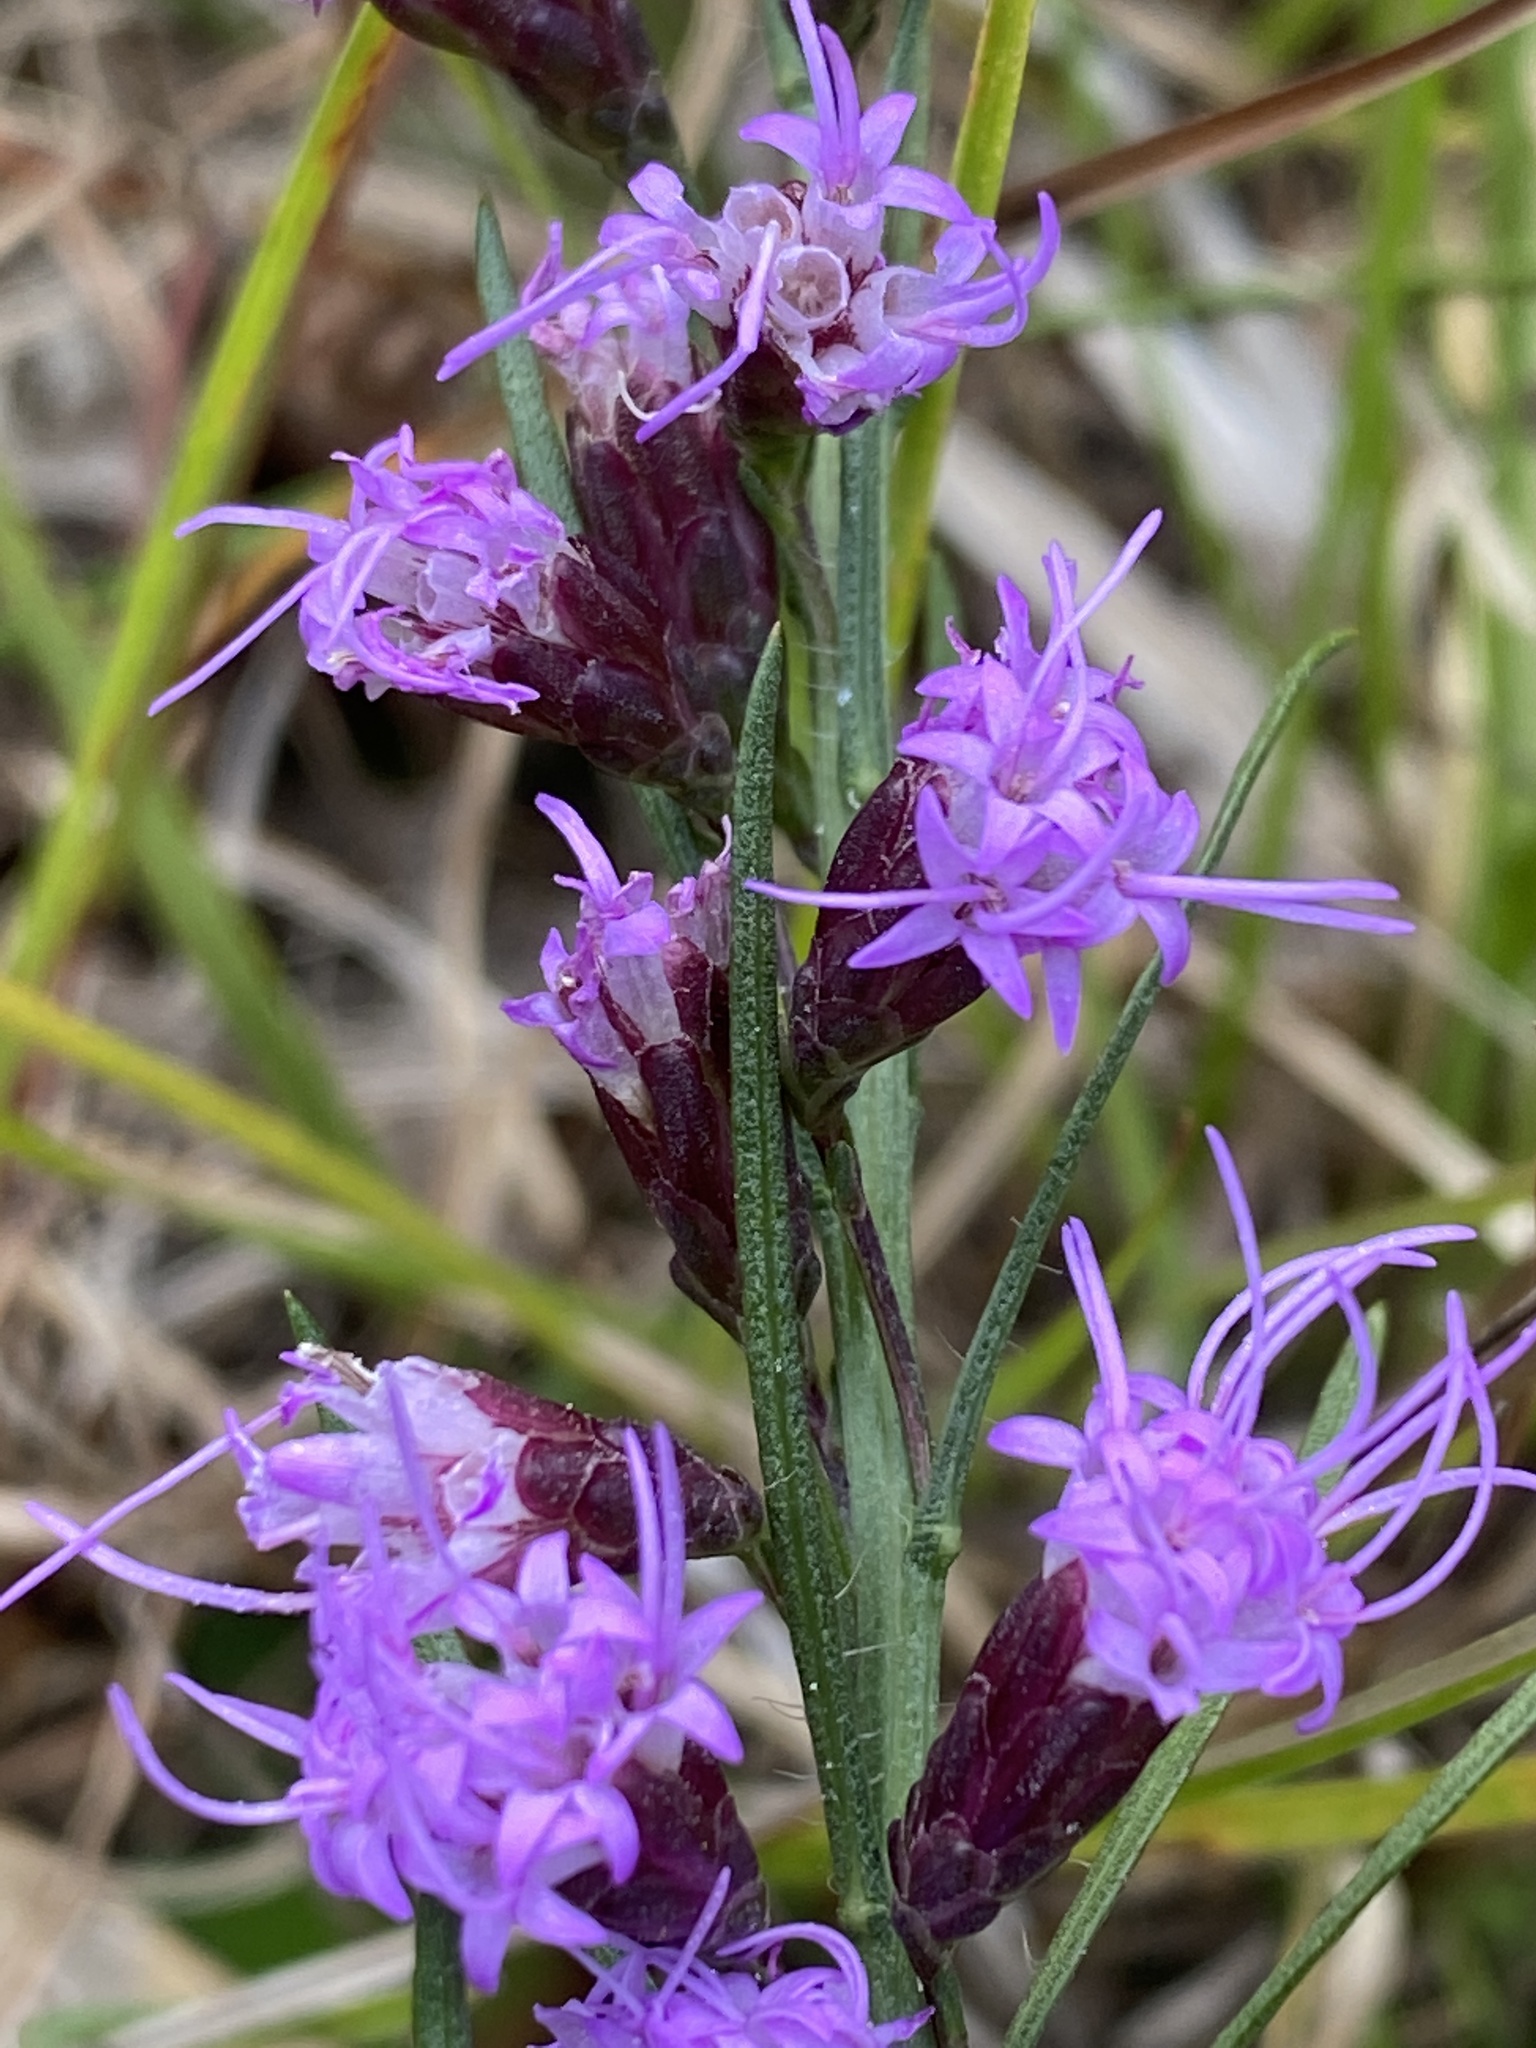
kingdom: Plantae
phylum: Tracheophyta
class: Magnoliopsida
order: Asterales
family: Asteraceae
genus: Liatris
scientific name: Liatris pilosa
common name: Grass-leaf gayfeather
